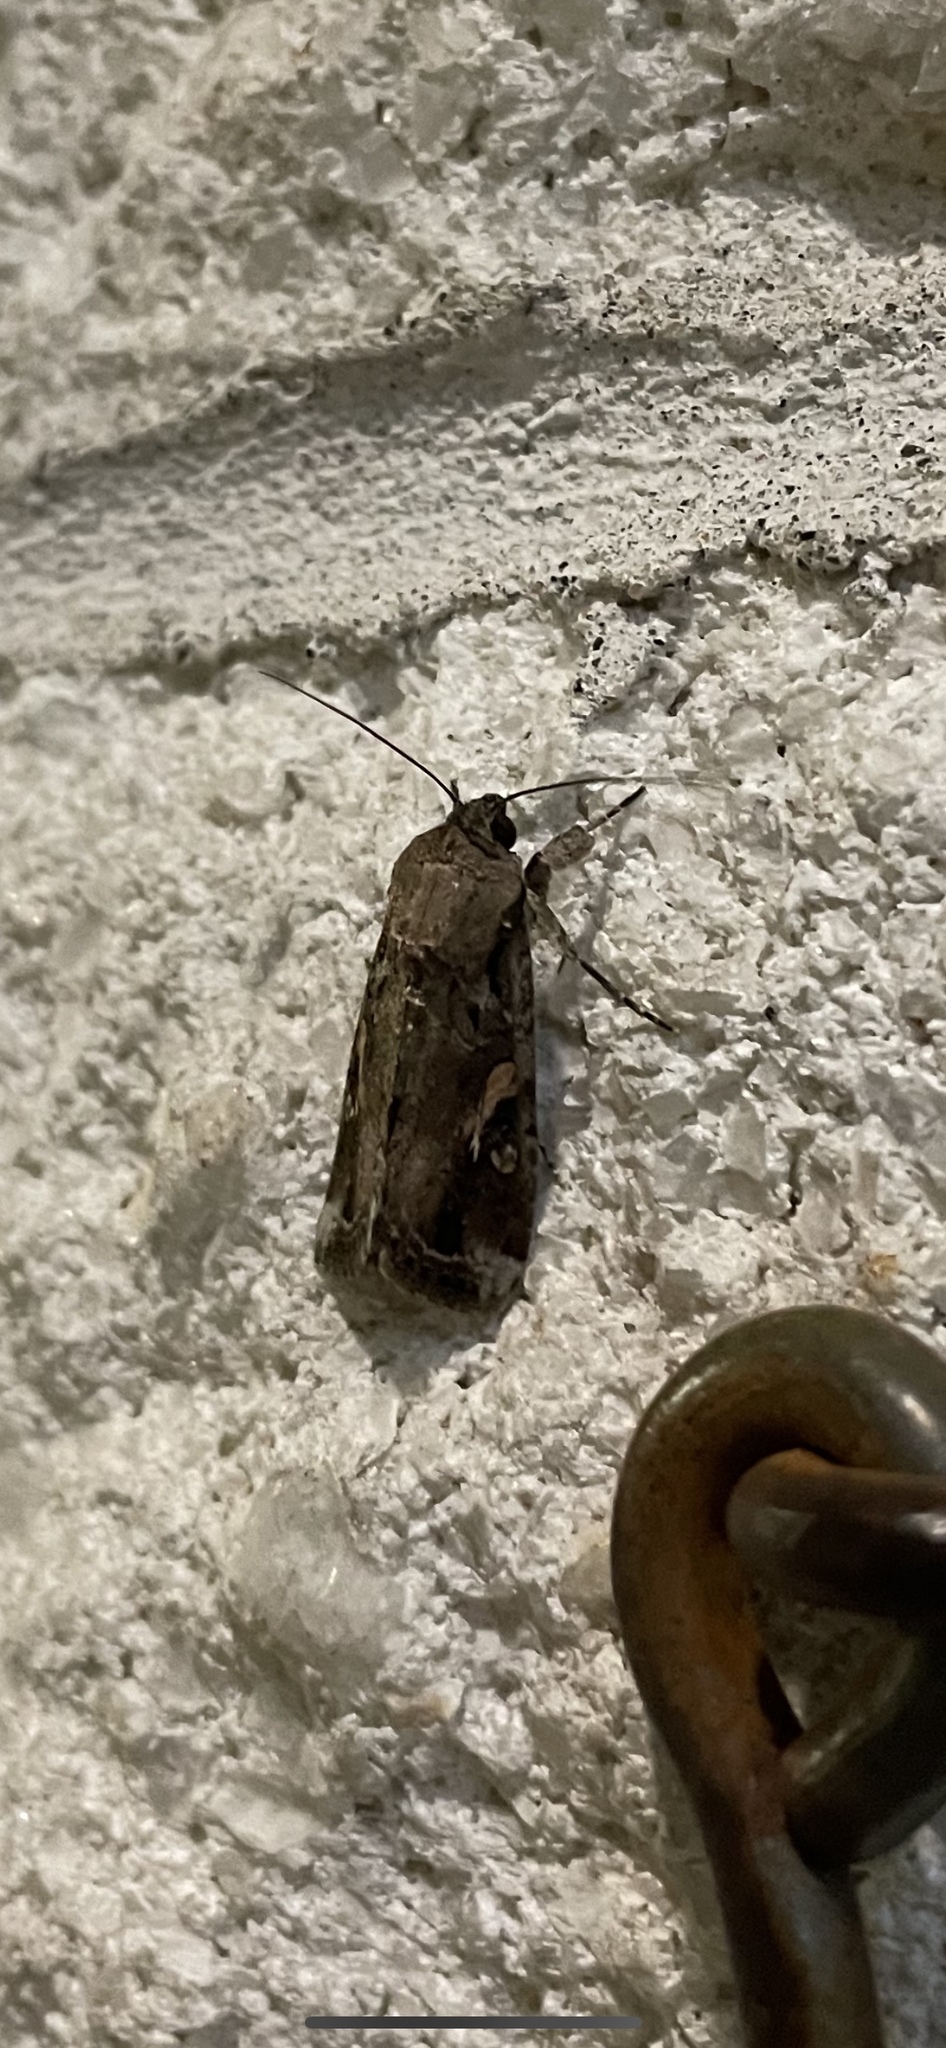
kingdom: Animalia
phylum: Arthropoda
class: Insecta
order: Lepidoptera
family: Noctuidae
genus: Spodoptera
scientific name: Spodoptera frugiperda
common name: Fall armyworm
